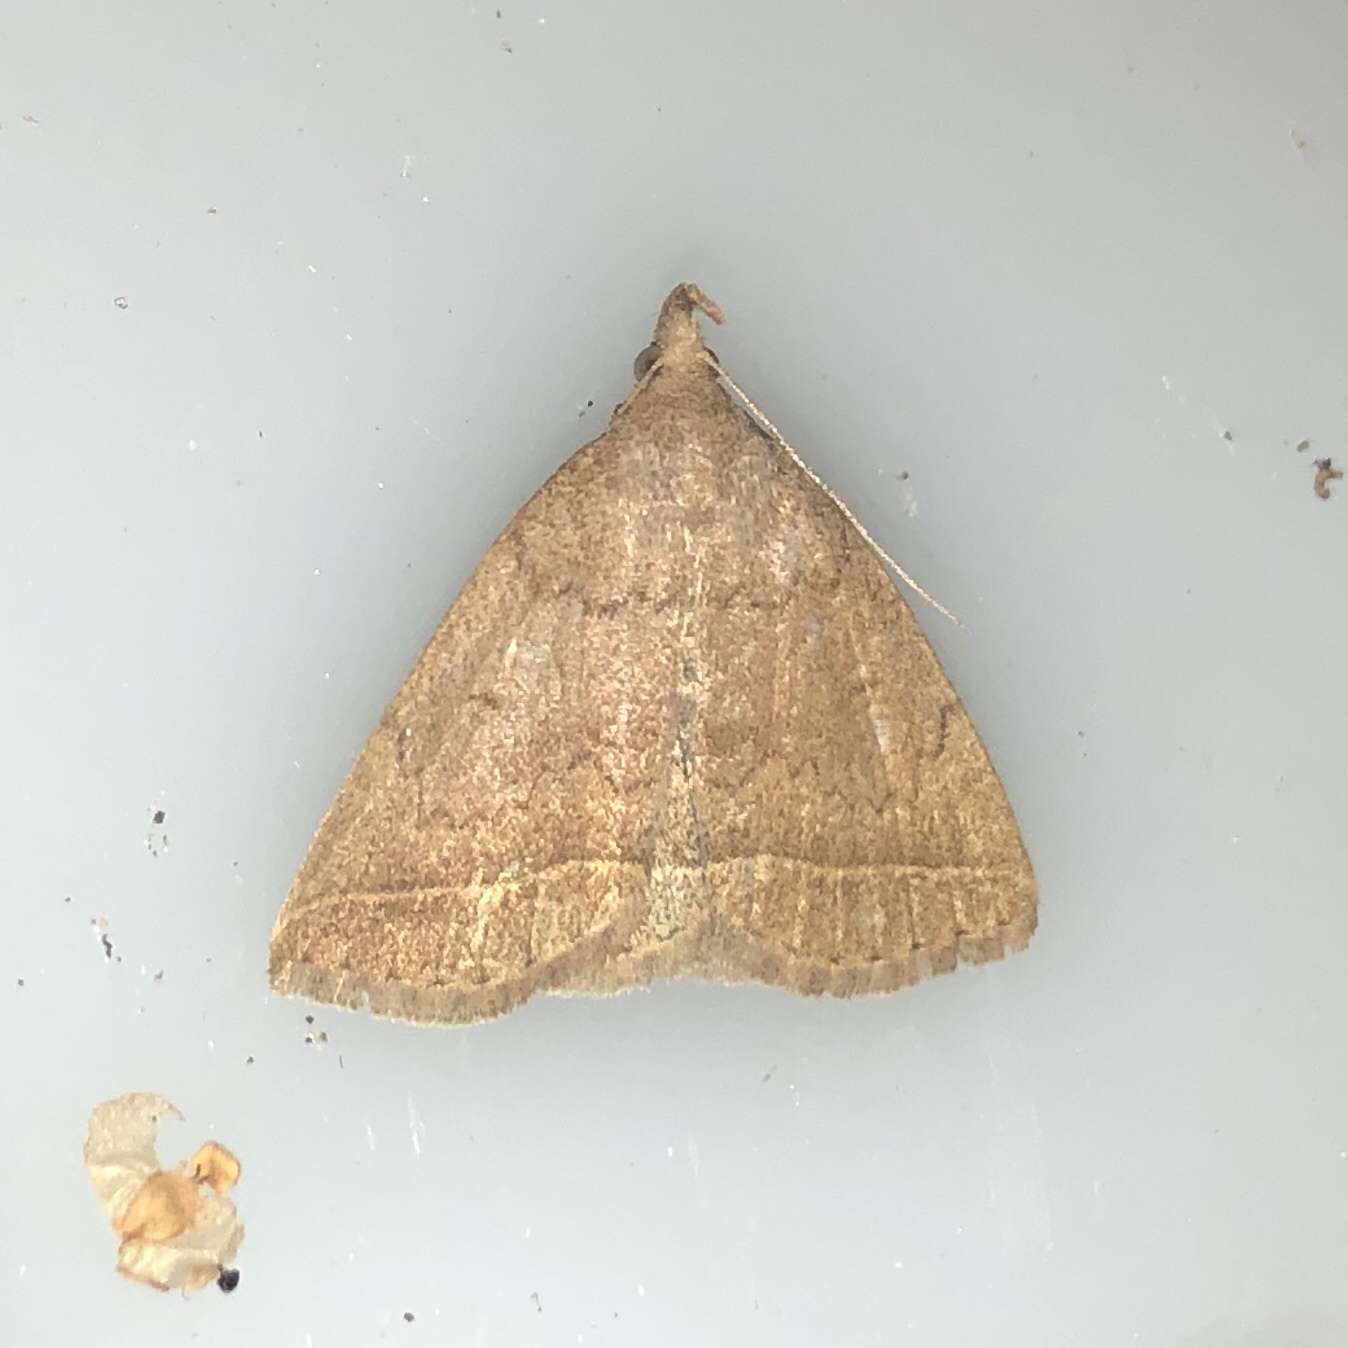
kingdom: Animalia
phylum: Arthropoda
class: Insecta
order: Lepidoptera
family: Erebidae
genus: Zanclognatha
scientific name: Zanclognatha jacchusalis
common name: Yellowish zanclognatha
